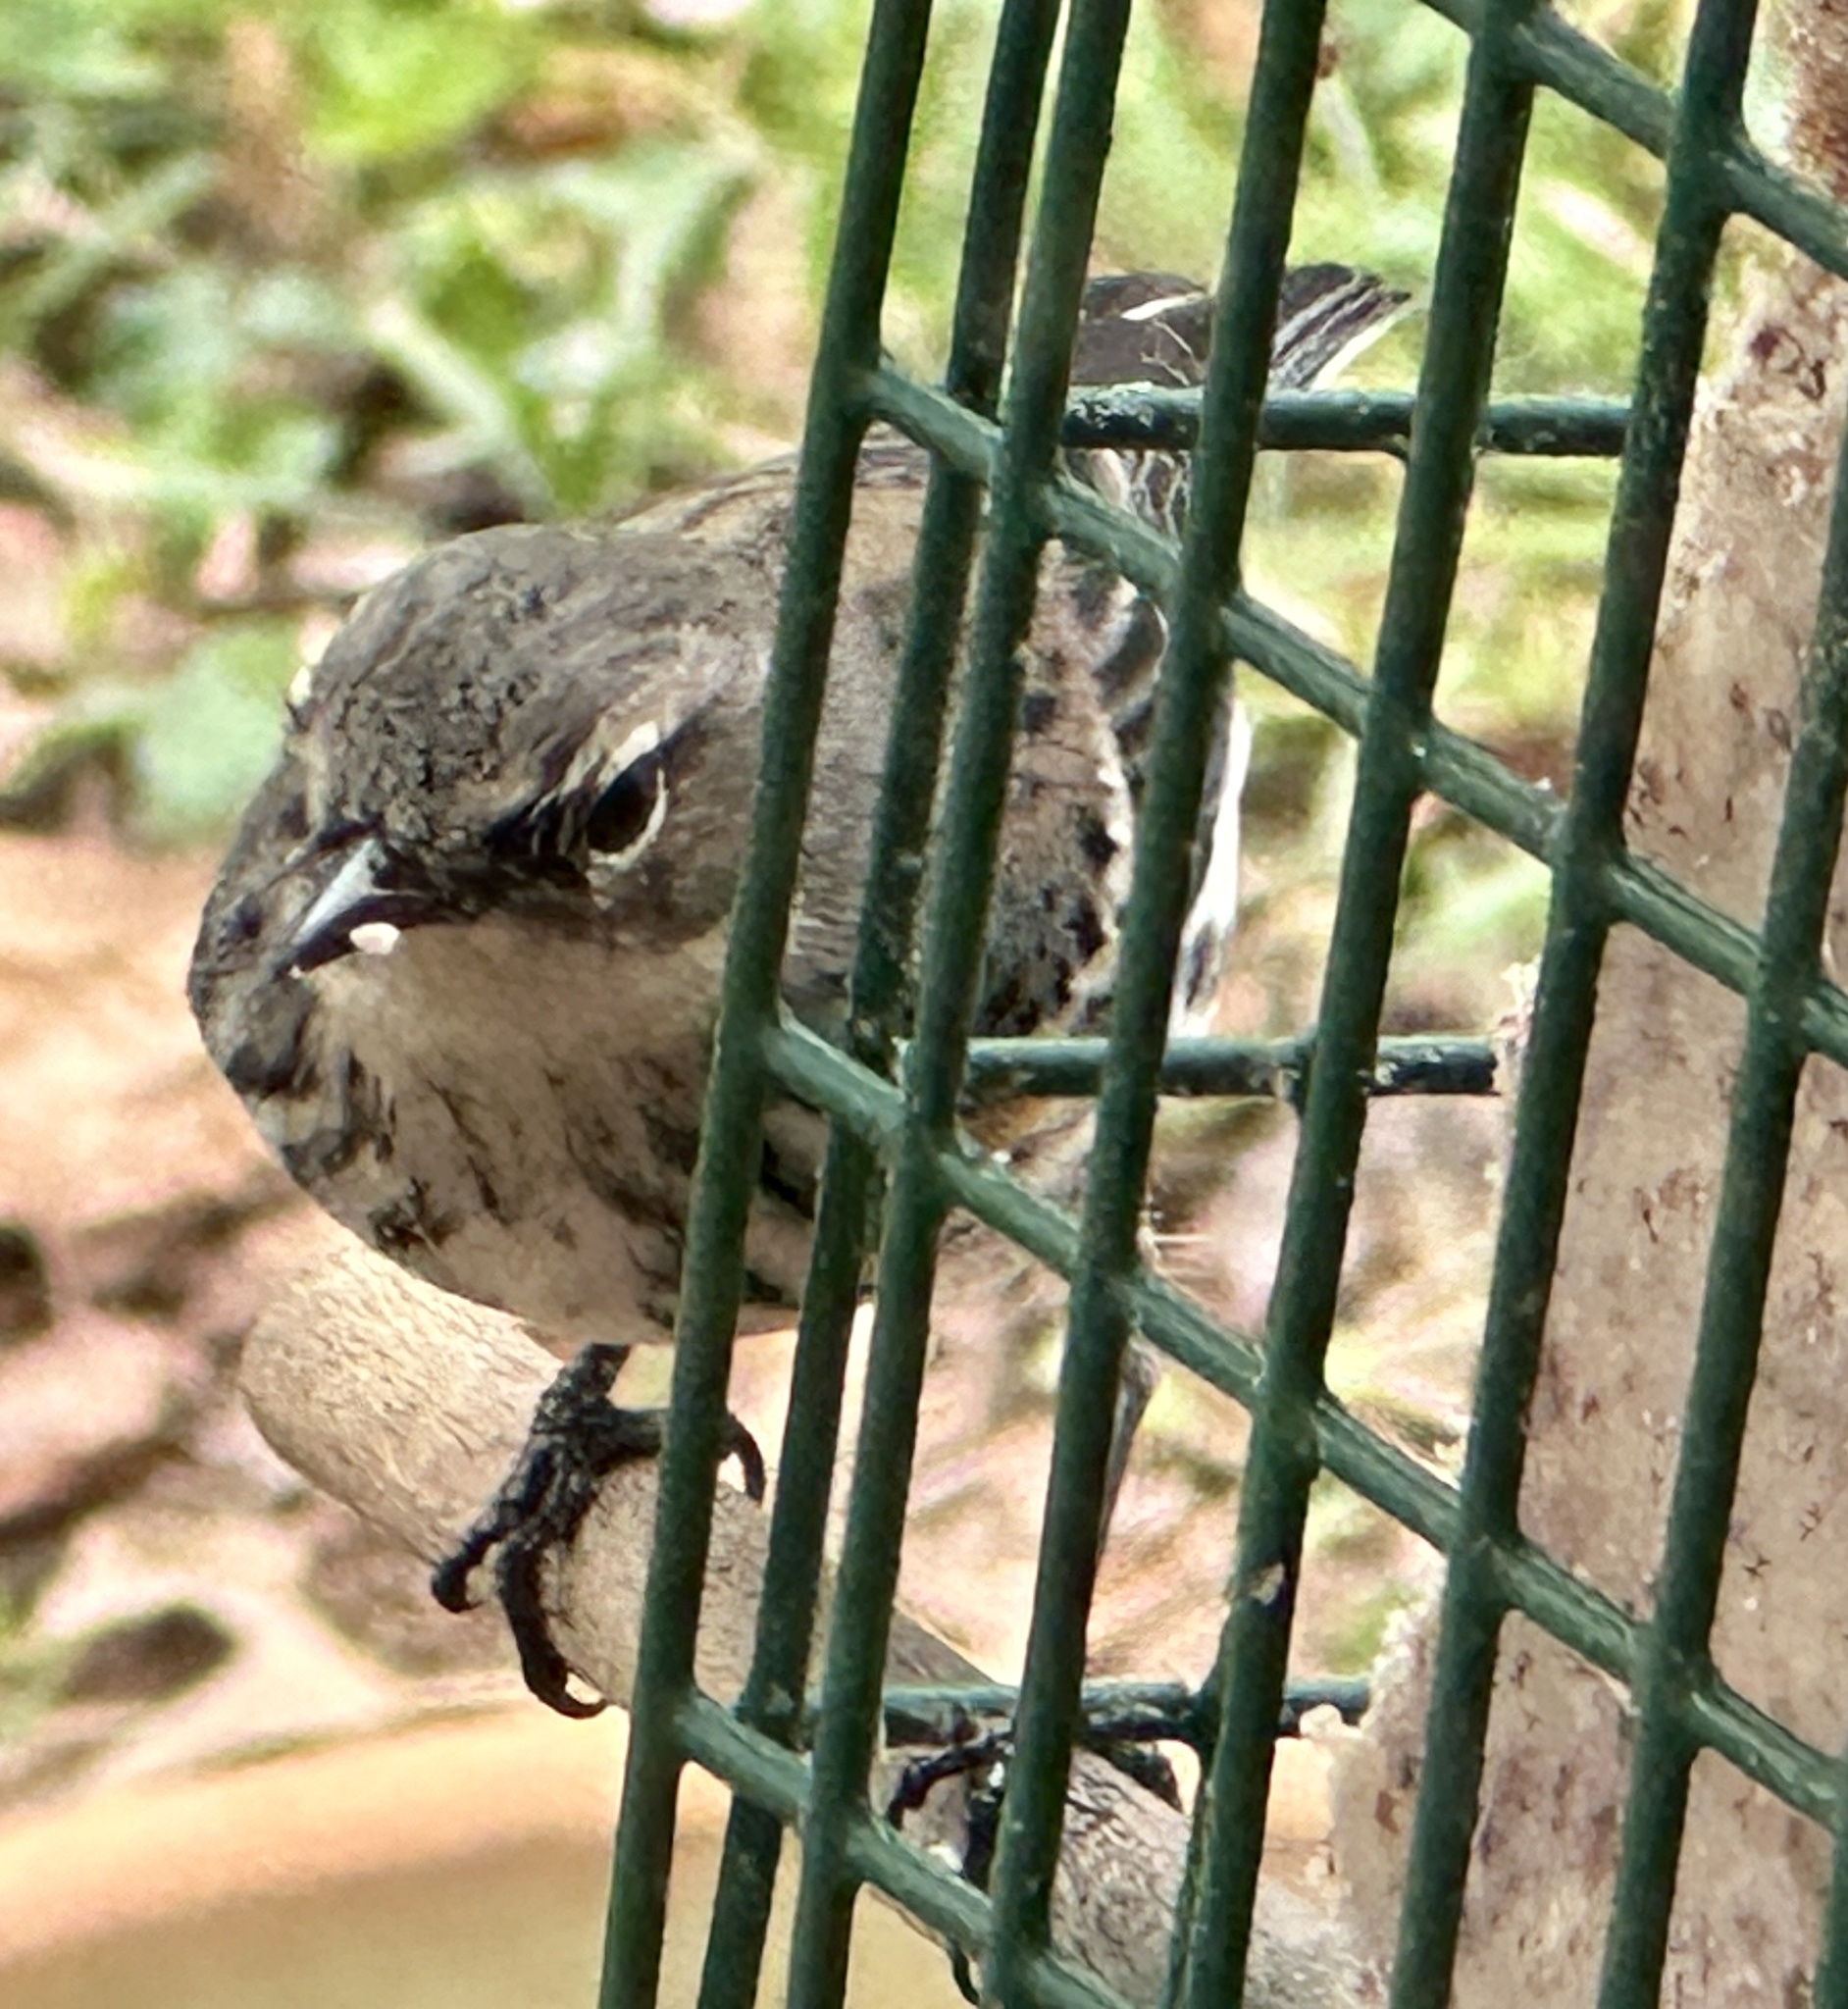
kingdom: Animalia
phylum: Chordata
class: Aves
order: Passeriformes
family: Parulidae
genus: Setophaga
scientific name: Setophaga coronata
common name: Myrtle warbler
